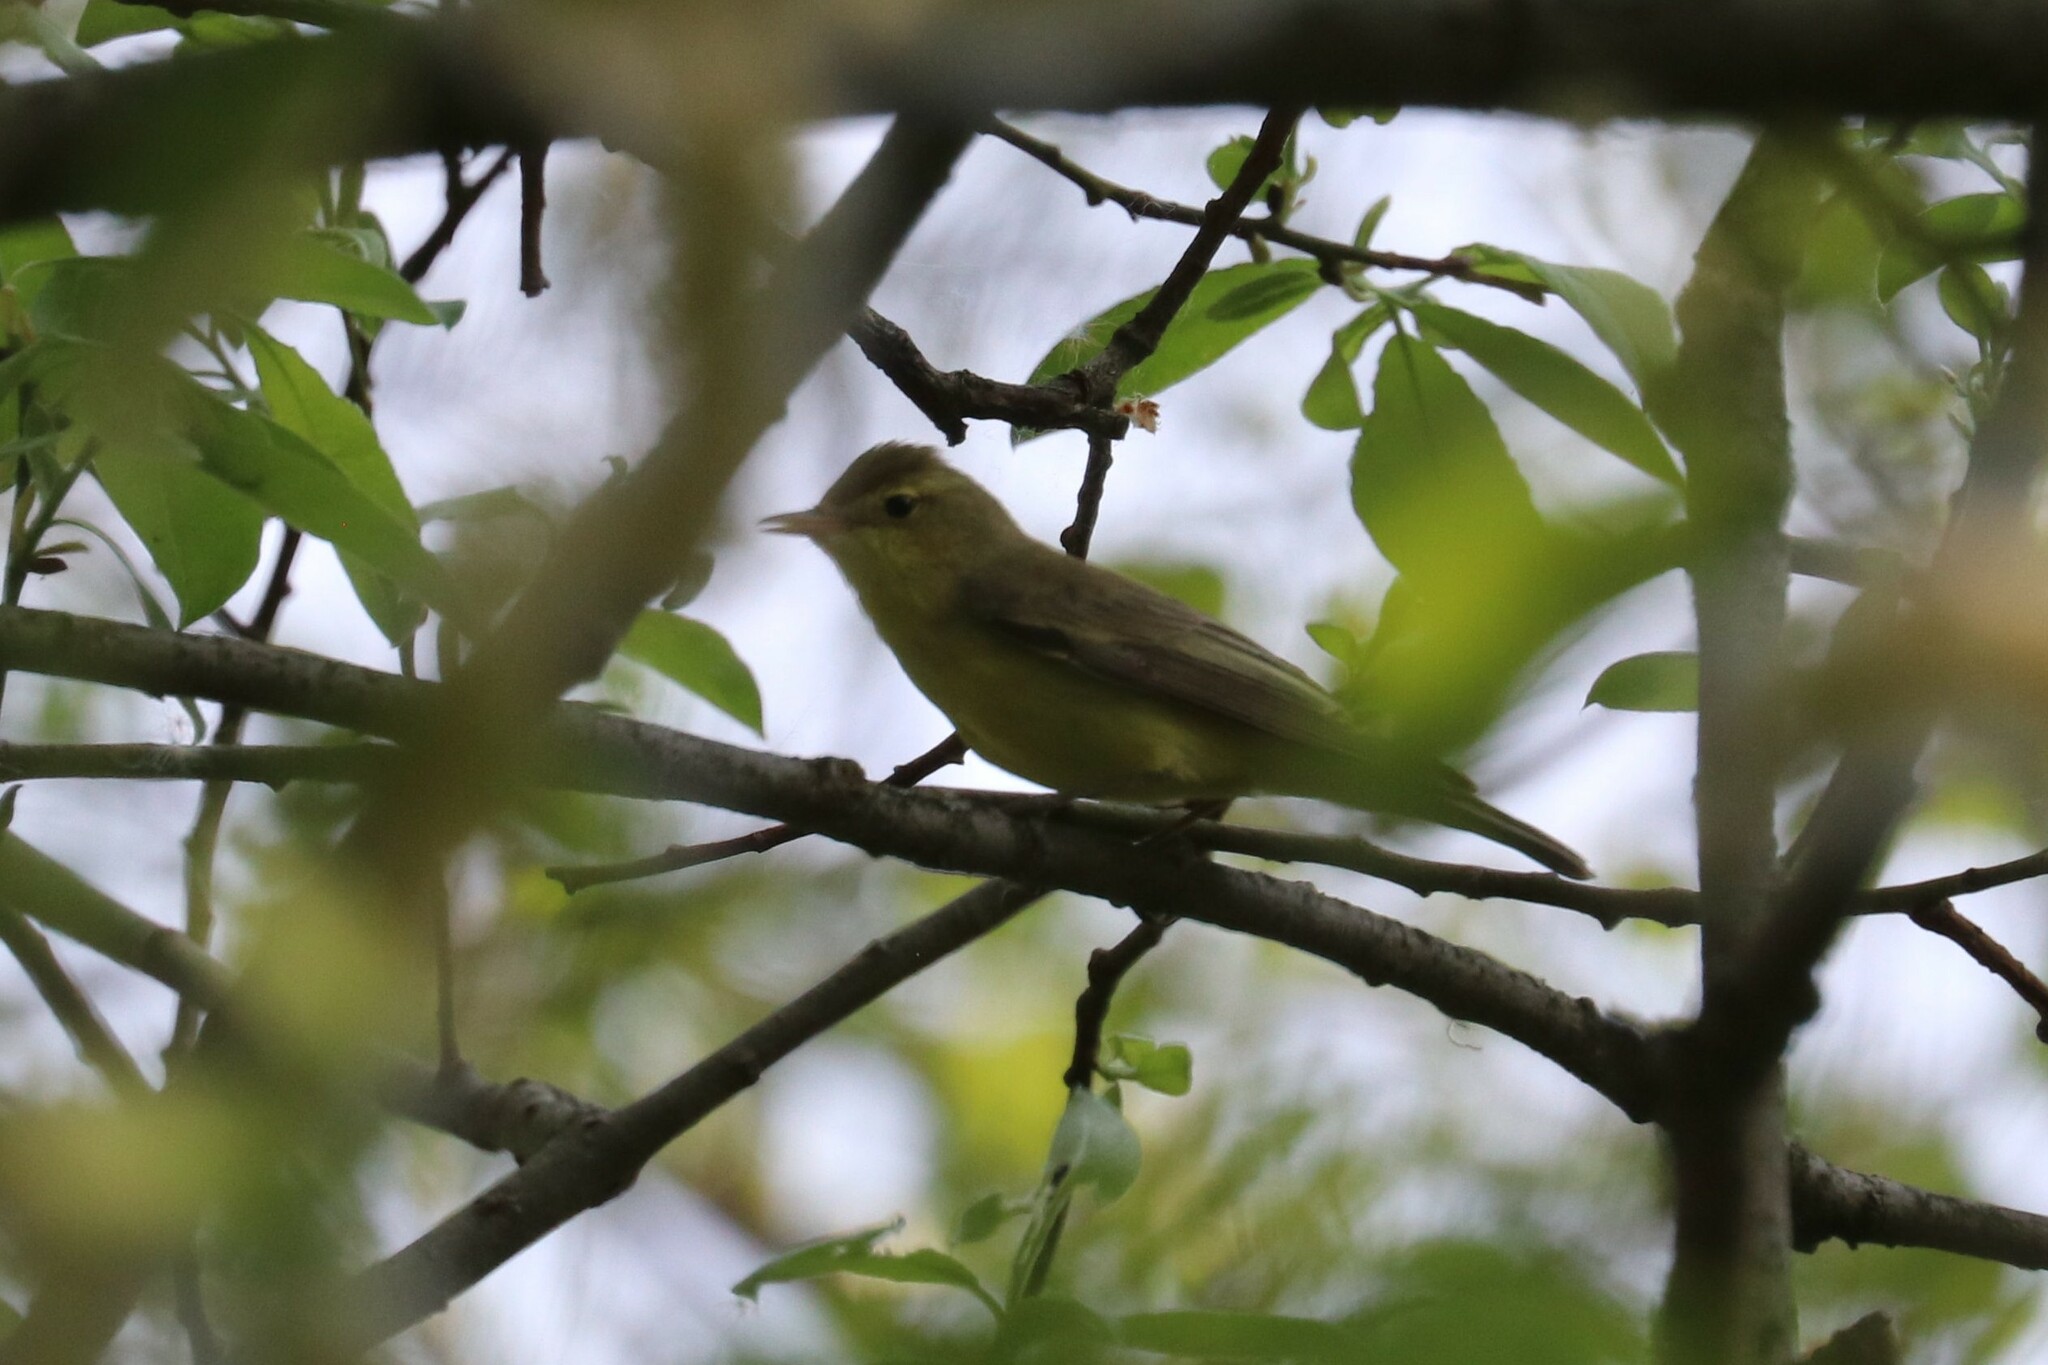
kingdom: Animalia
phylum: Chordata
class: Aves
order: Passeriformes
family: Acrocephalidae
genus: Hippolais
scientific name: Hippolais icterina
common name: Icterine warbler
